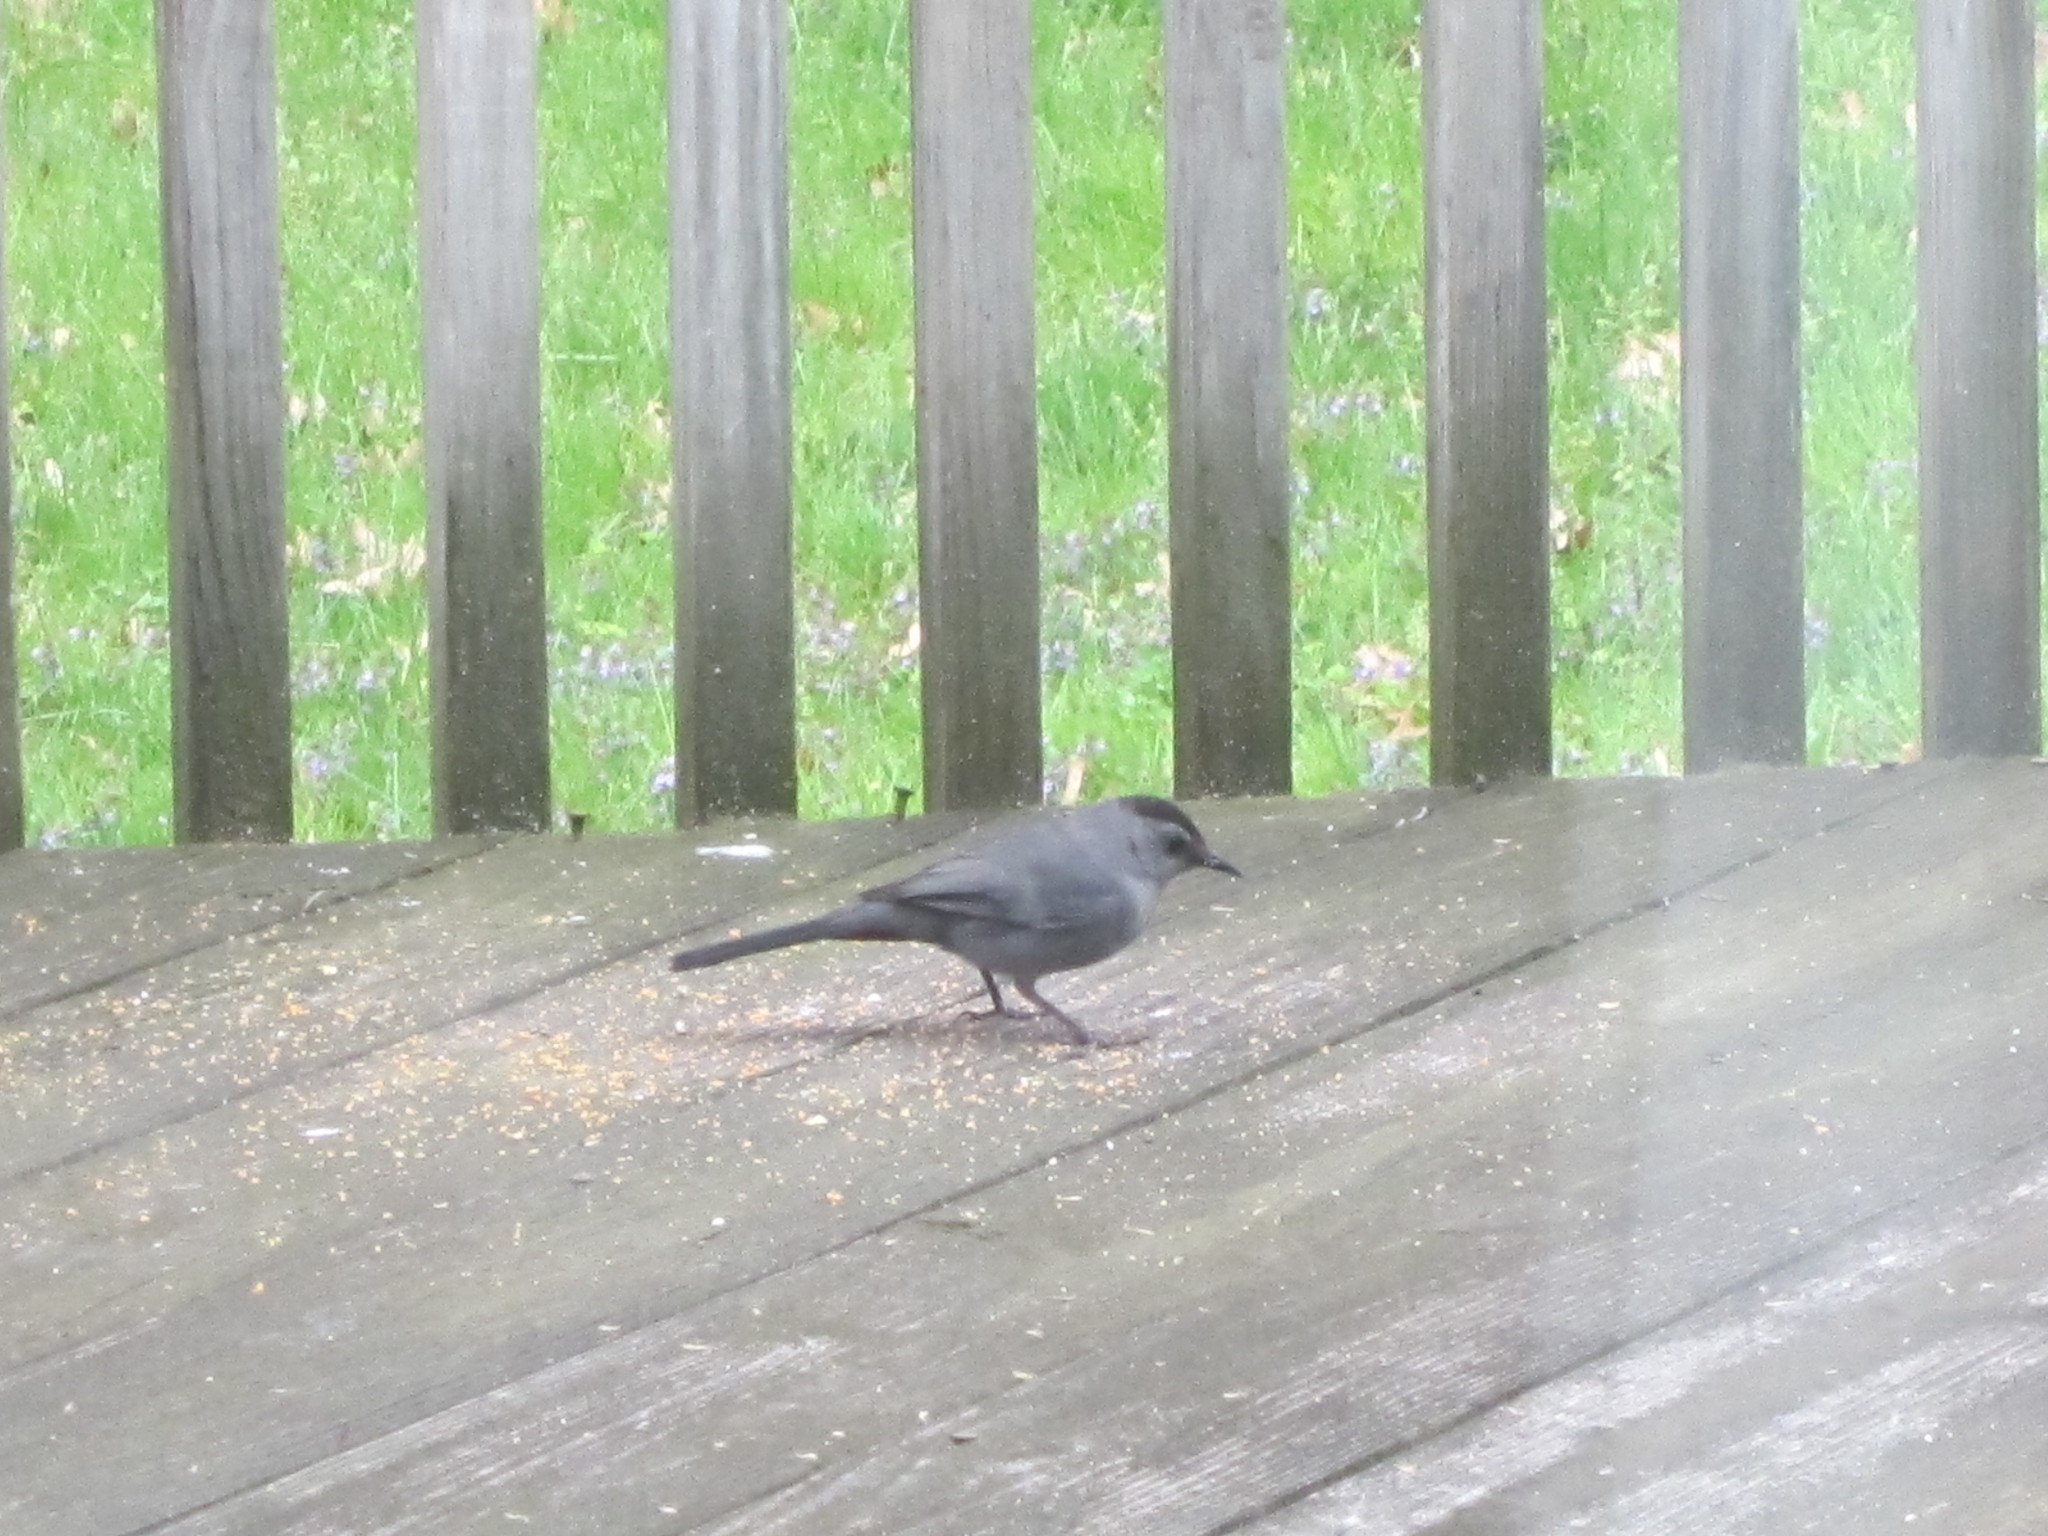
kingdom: Animalia
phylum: Chordata
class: Aves
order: Passeriformes
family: Mimidae
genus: Dumetella
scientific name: Dumetella carolinensis
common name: Gray catbird
